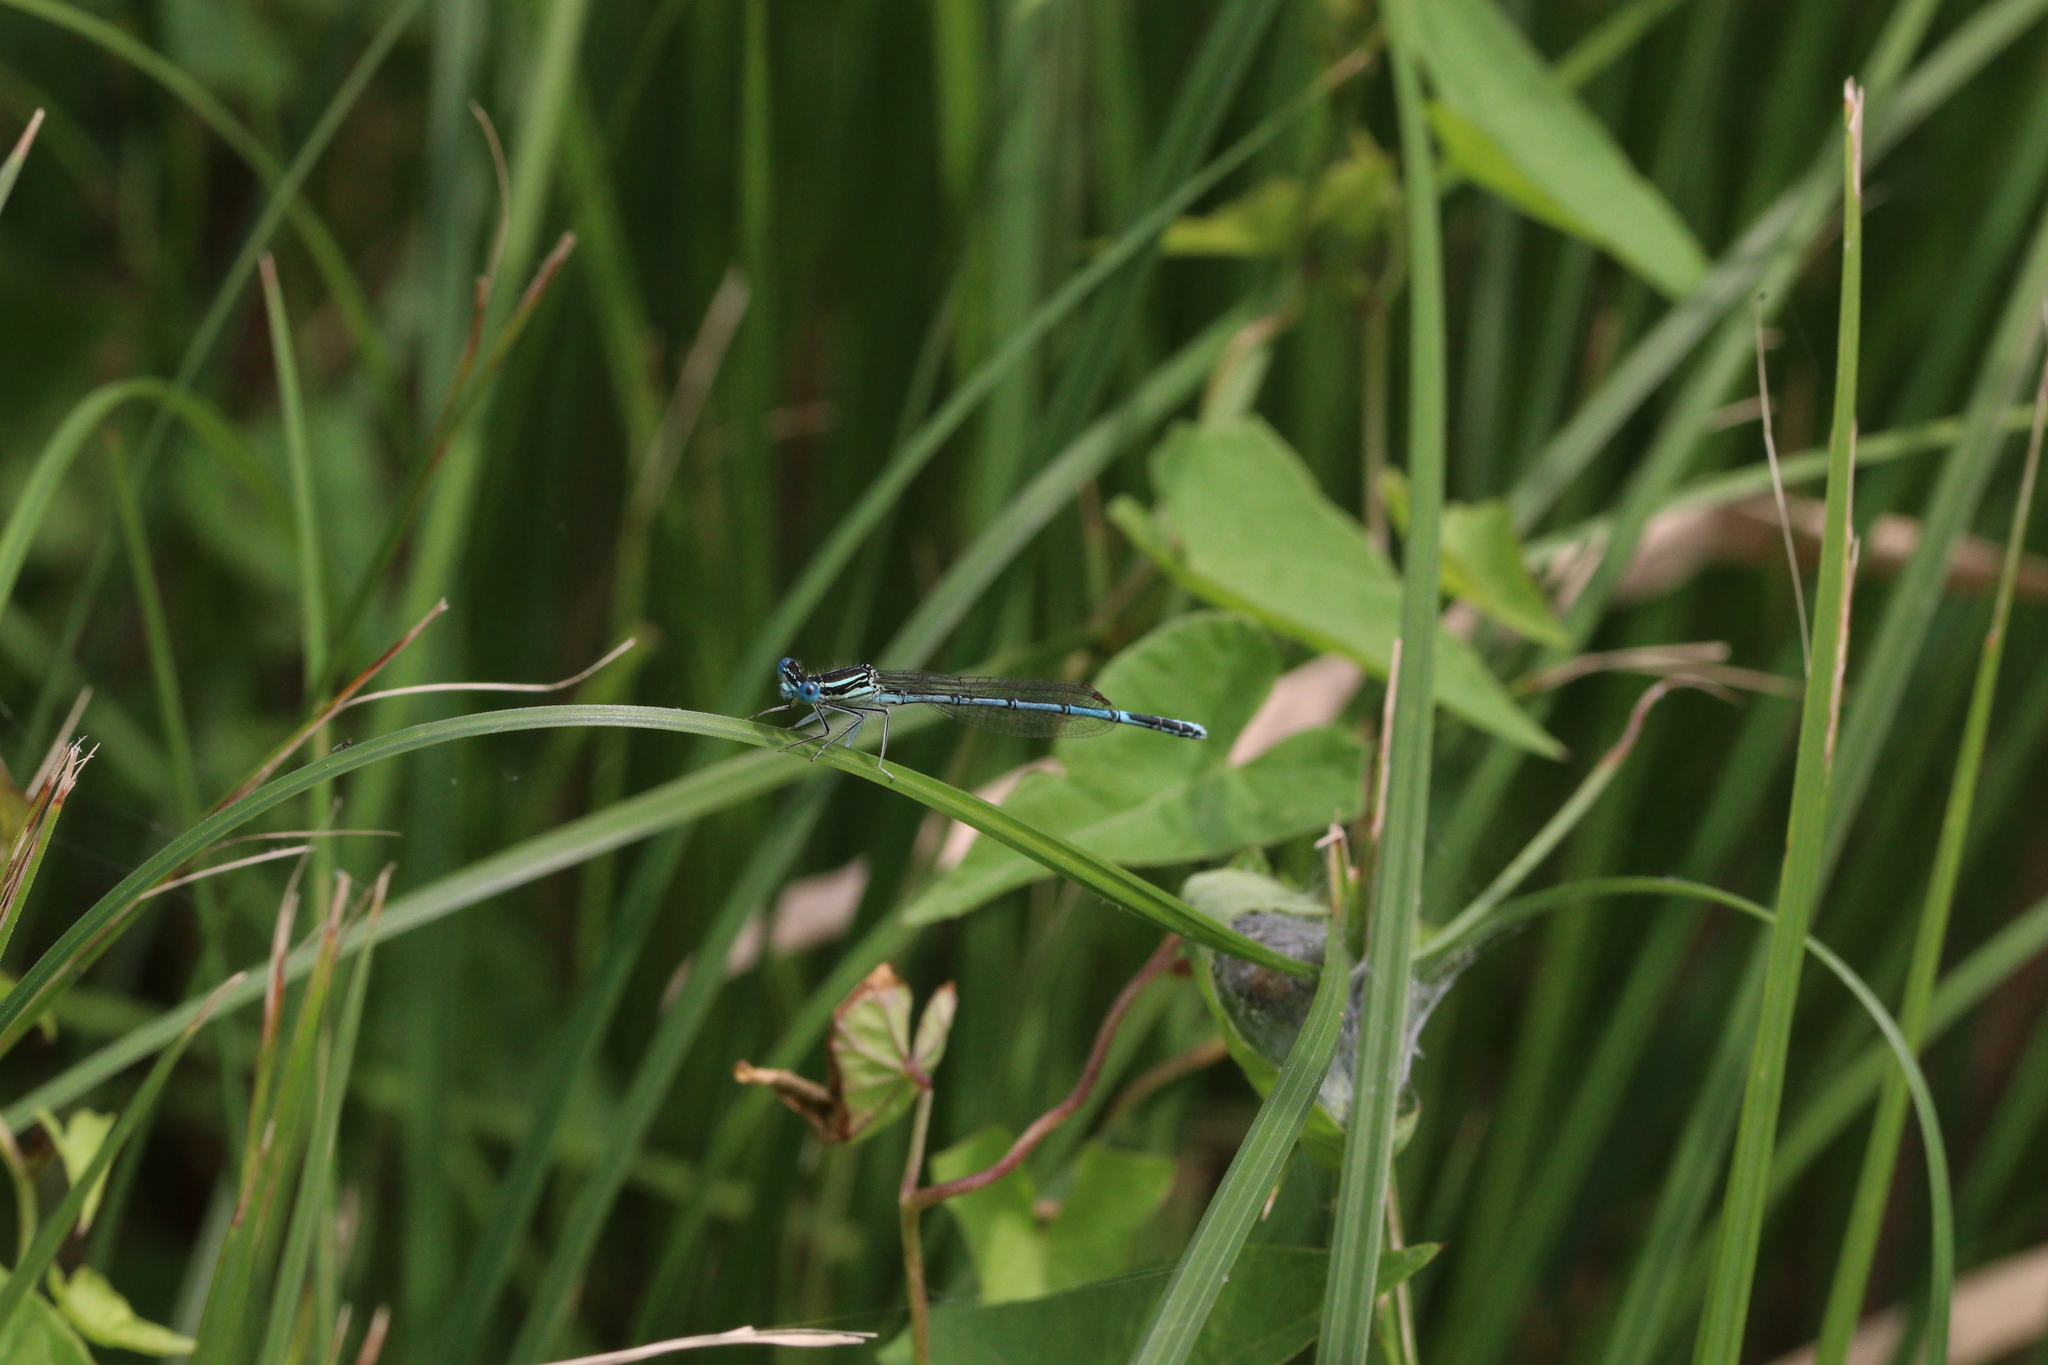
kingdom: Animalia
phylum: Arthropoda
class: Insecta
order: Odonata
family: Platycnemididae
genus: Platycnemis
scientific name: Platycnemis pennipes
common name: White-legged damselfly
